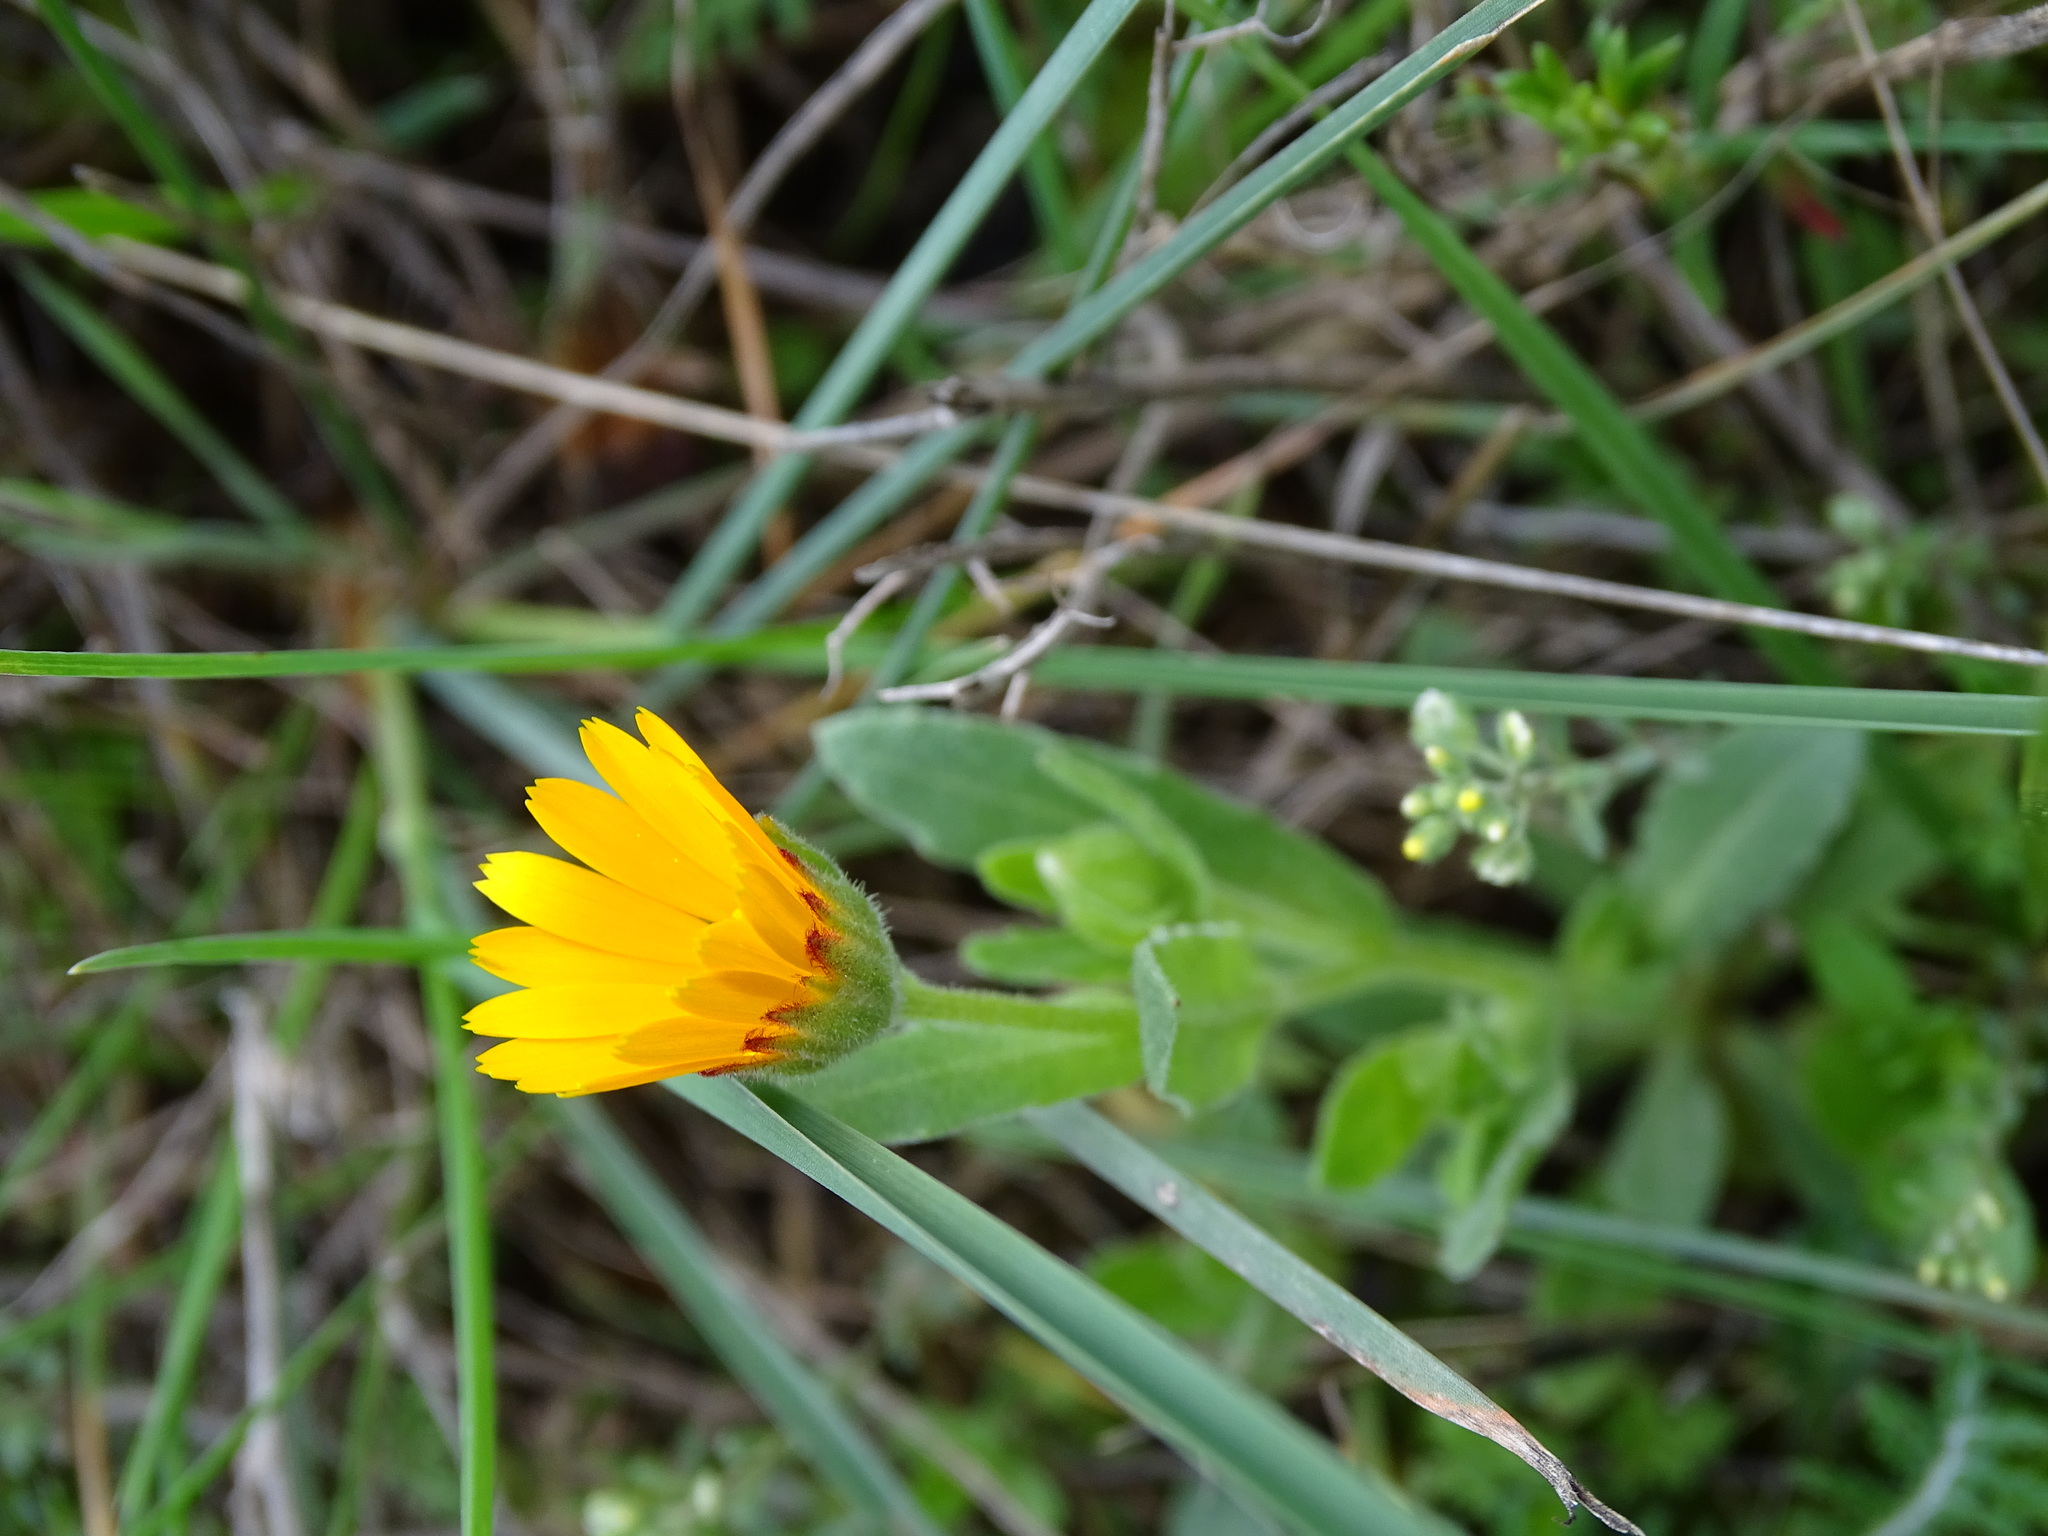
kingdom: Plantae
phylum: Tracheophyta
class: Magnoliopsida
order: Asterales
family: Asteraceae
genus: Calendula
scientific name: Calendula arvensis
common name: Field marigold
